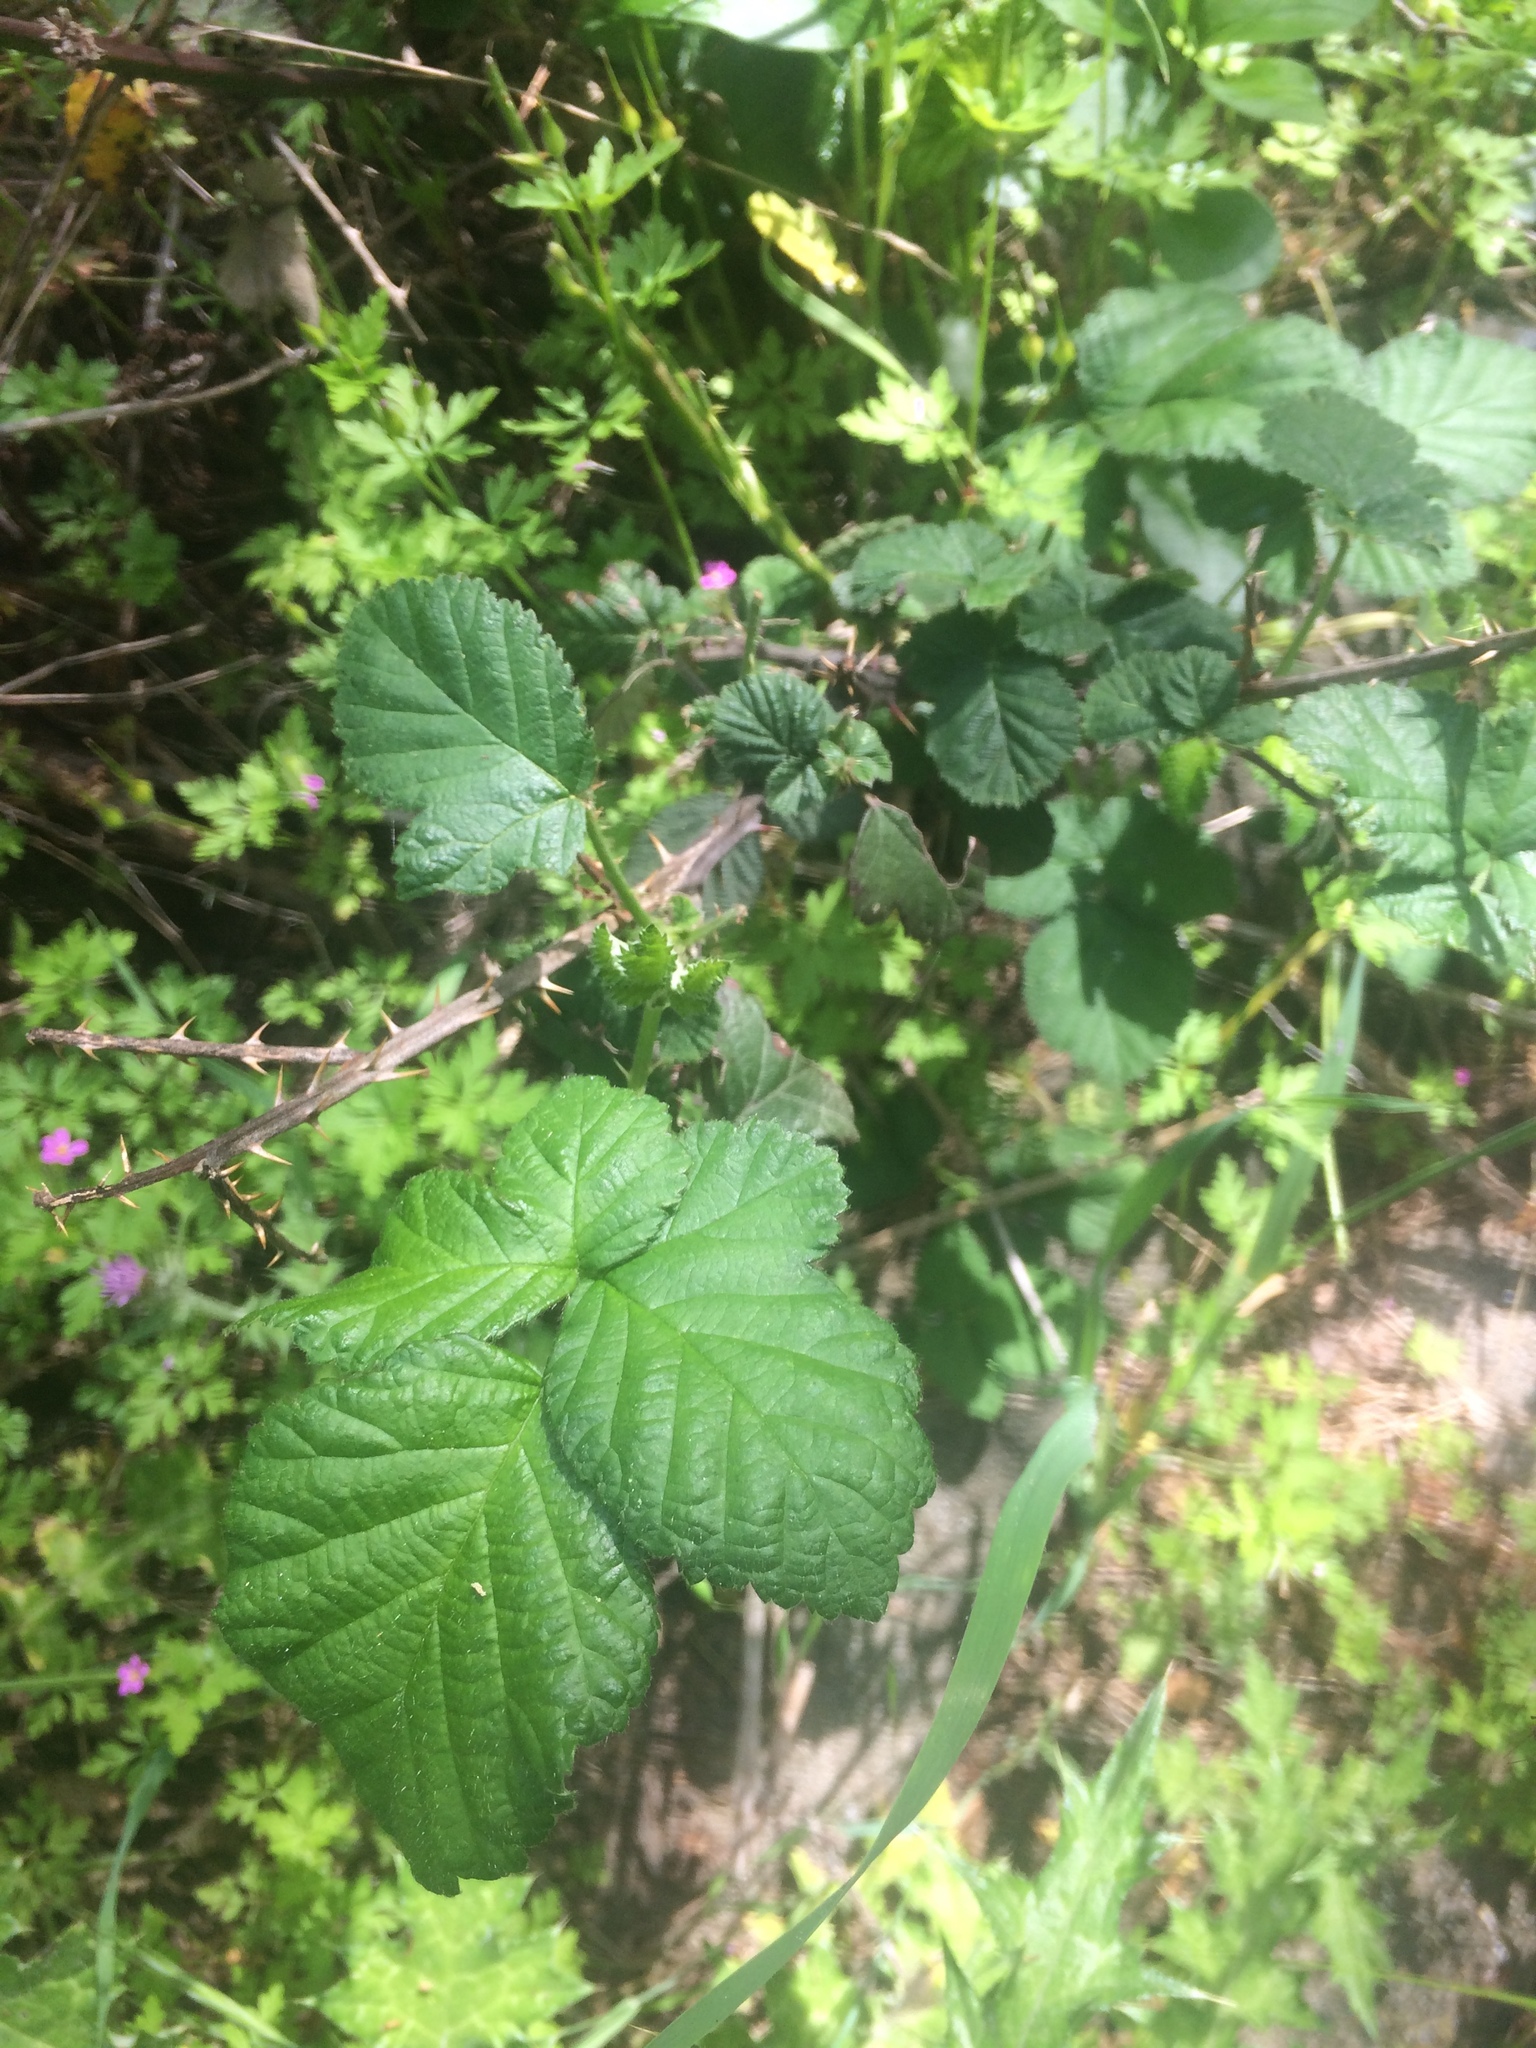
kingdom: Plantae
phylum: Tracheophyta
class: Magnoliopsida
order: Rosales
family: Rosaceae
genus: Rubus
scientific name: Rubus armeniacus
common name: Himalayan blackberry
